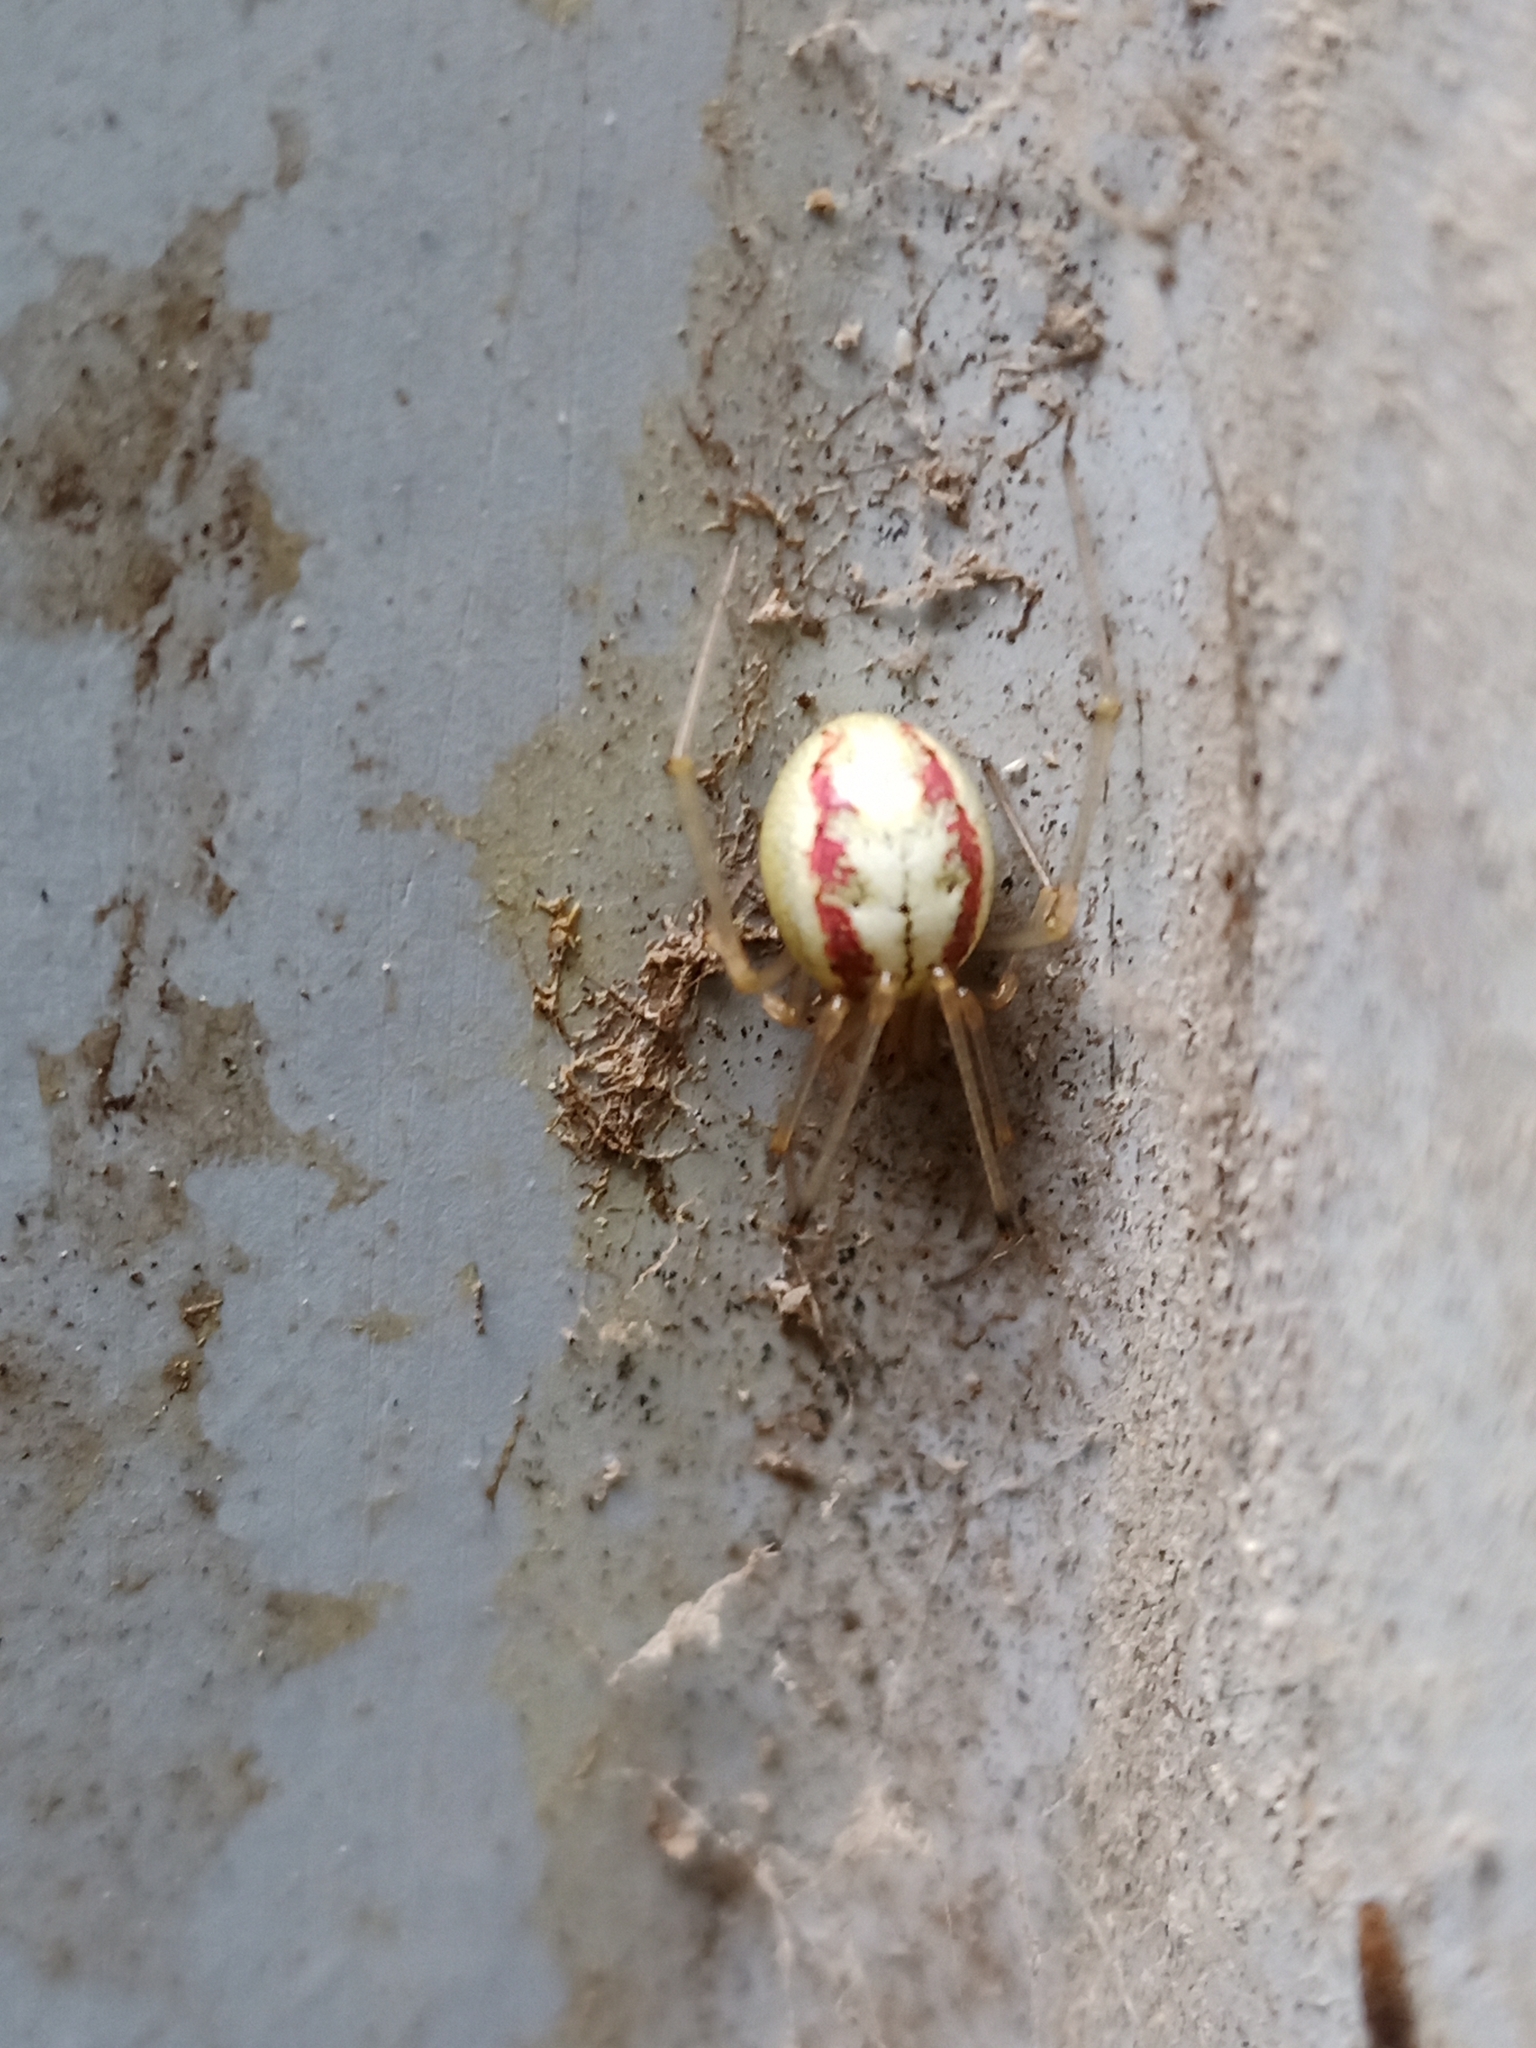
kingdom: Animalia
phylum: Arthropoda
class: Arachnida
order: Araneae
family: Theridiidae
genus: Enoplognatha
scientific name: Enoplognatha
